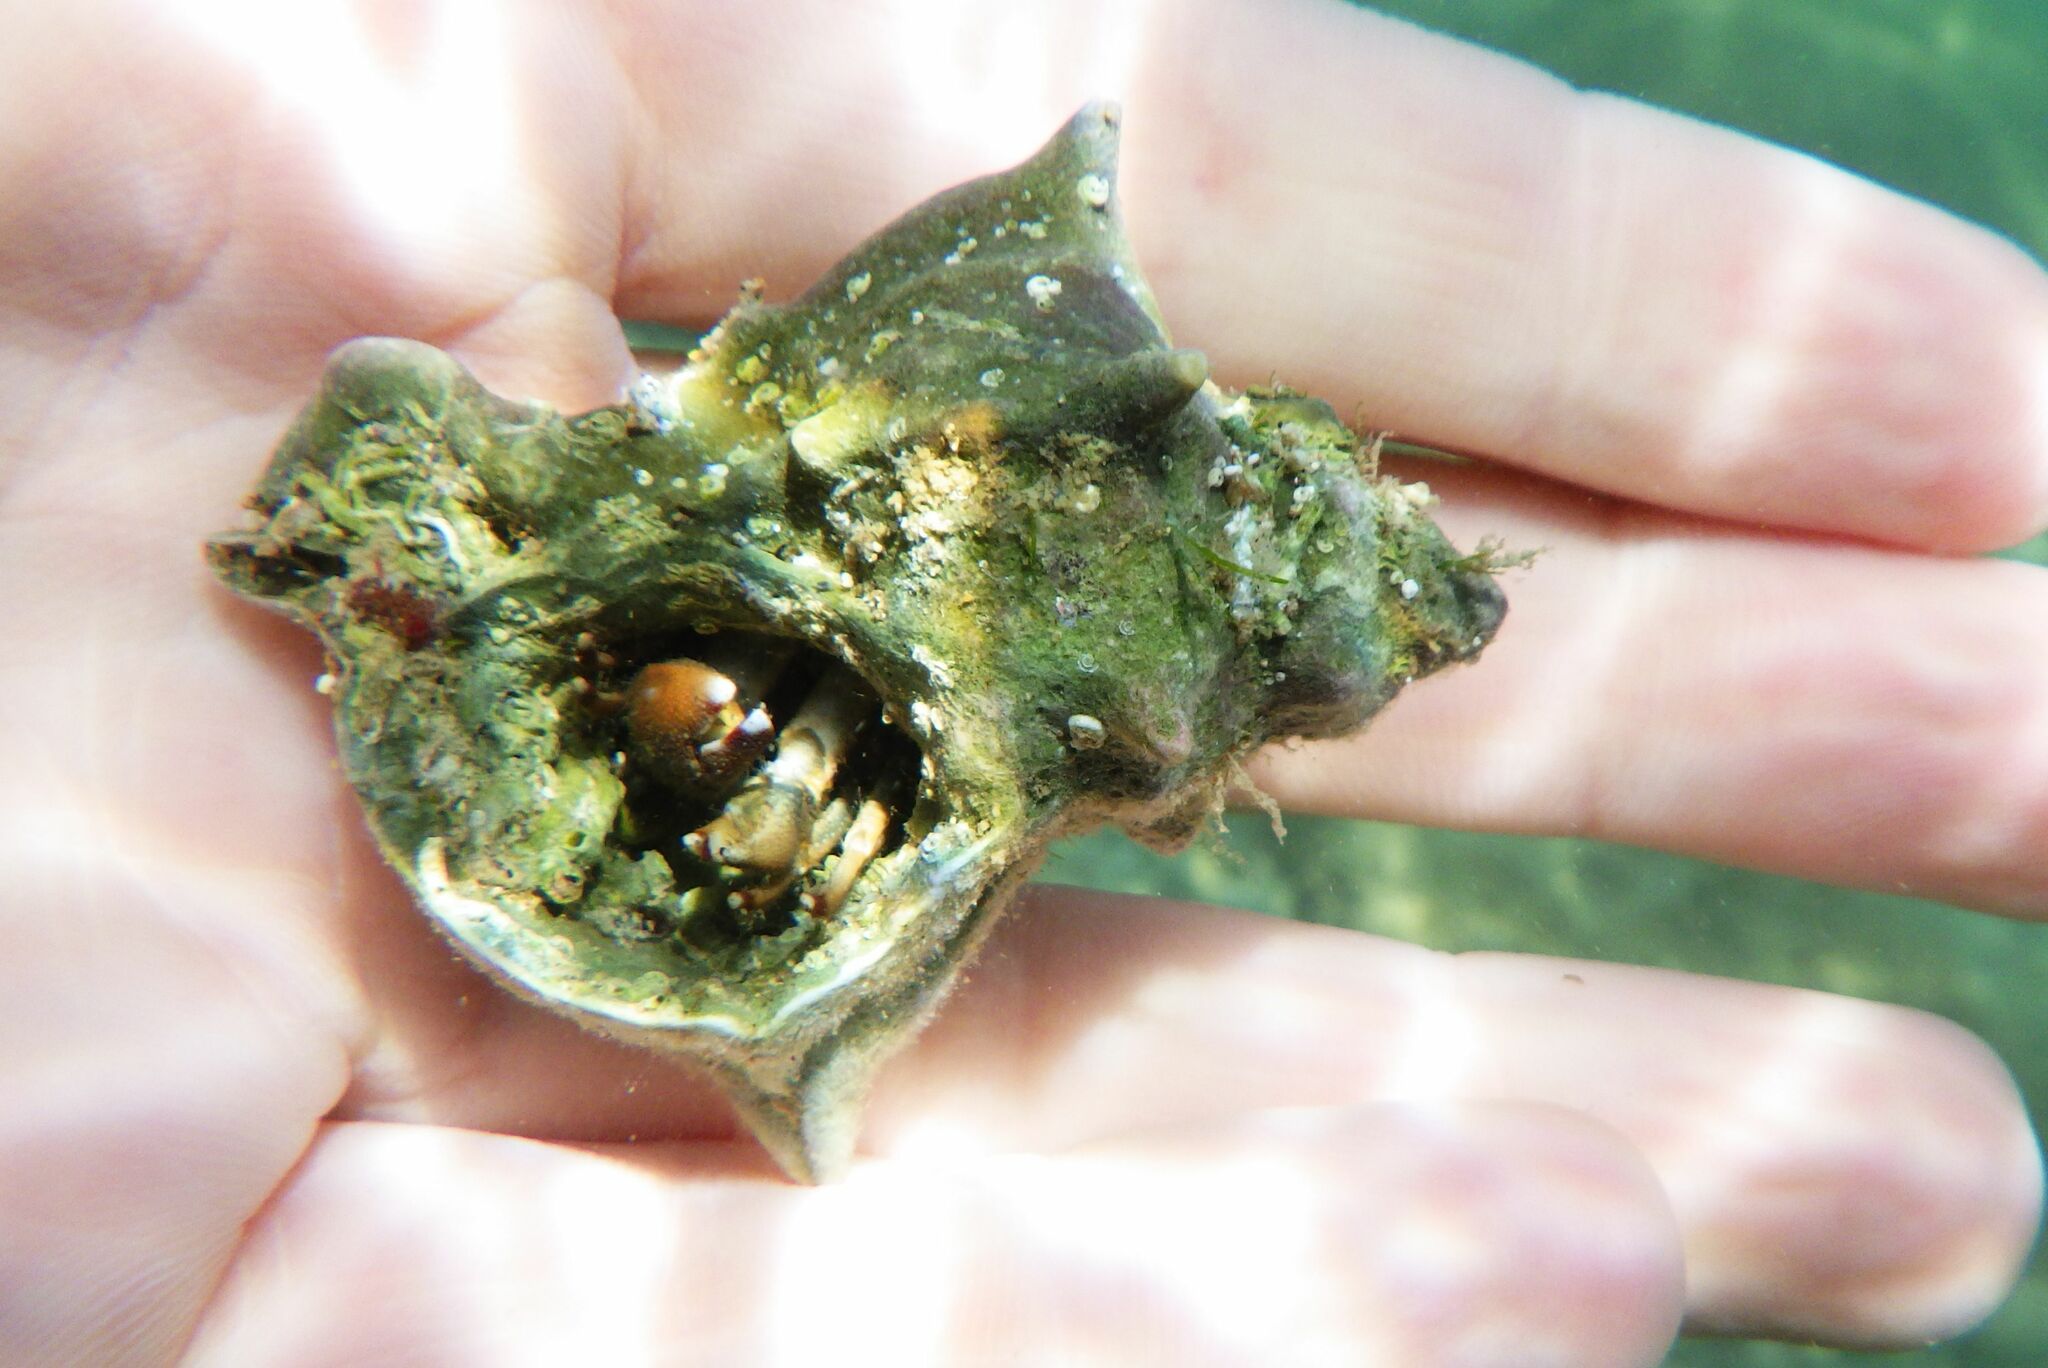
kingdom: Animalia
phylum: Mollusca
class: Gastropoda
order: Neogastropoda
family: Muricidae
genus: Hexaplex
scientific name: Hexaplex trunculus
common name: Banded dye-murex
